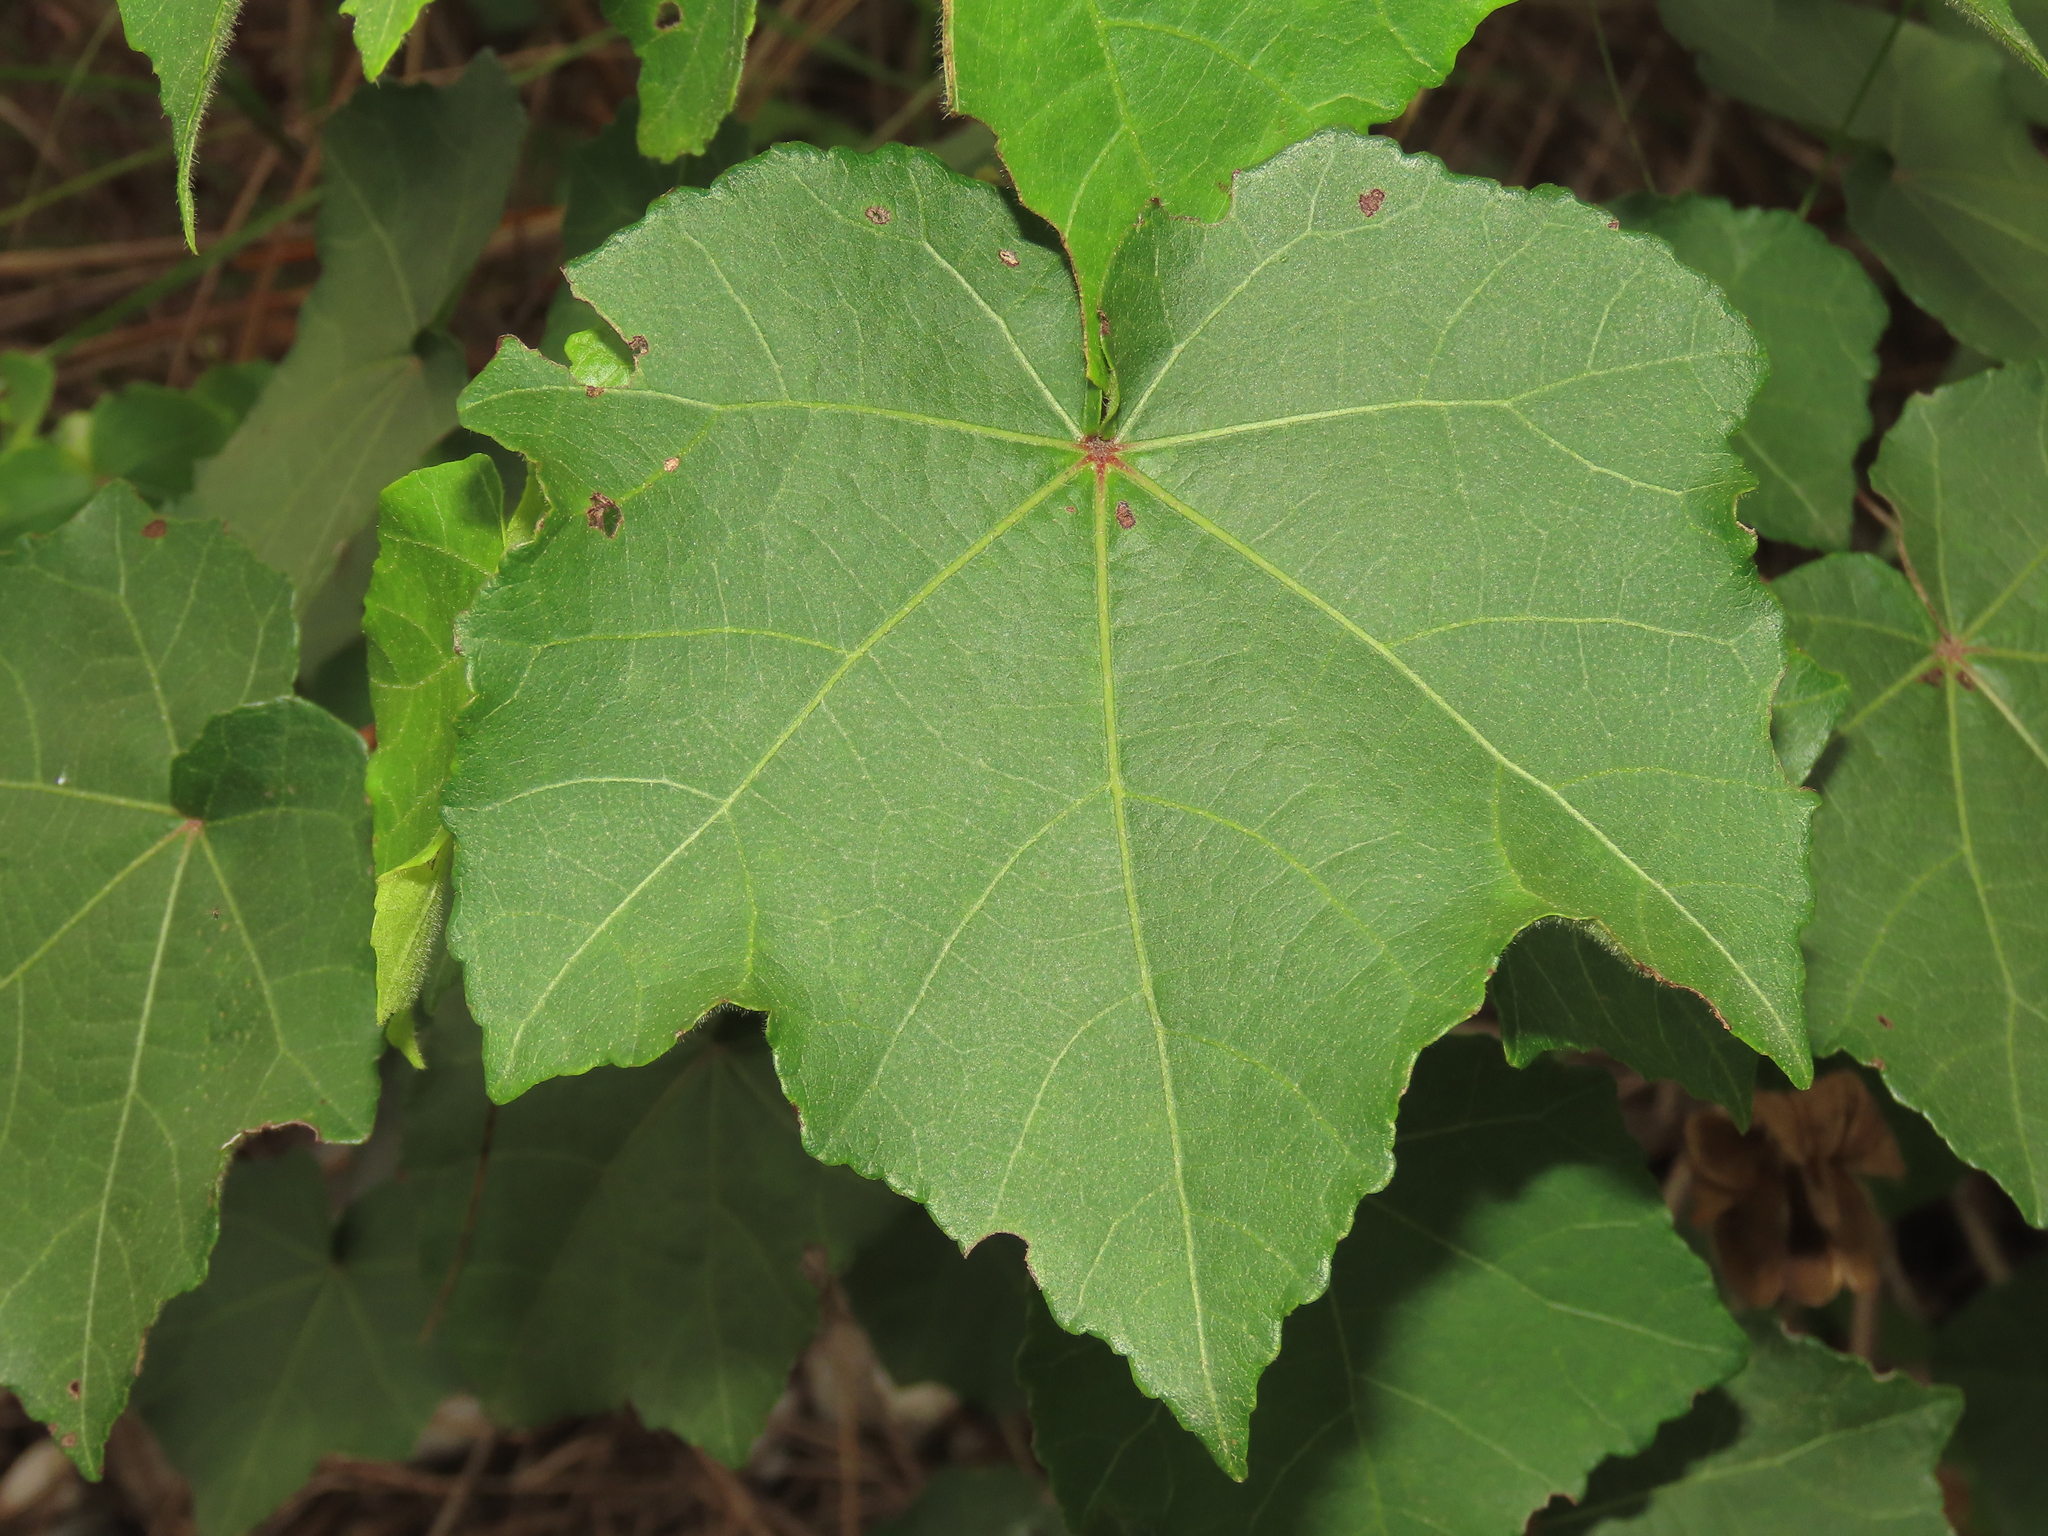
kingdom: Plantae
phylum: Tracheophyta
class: Magnoliopsida
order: Malvales
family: Malvaceae
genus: Hibiscus
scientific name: Hibiscus taiwanensis
